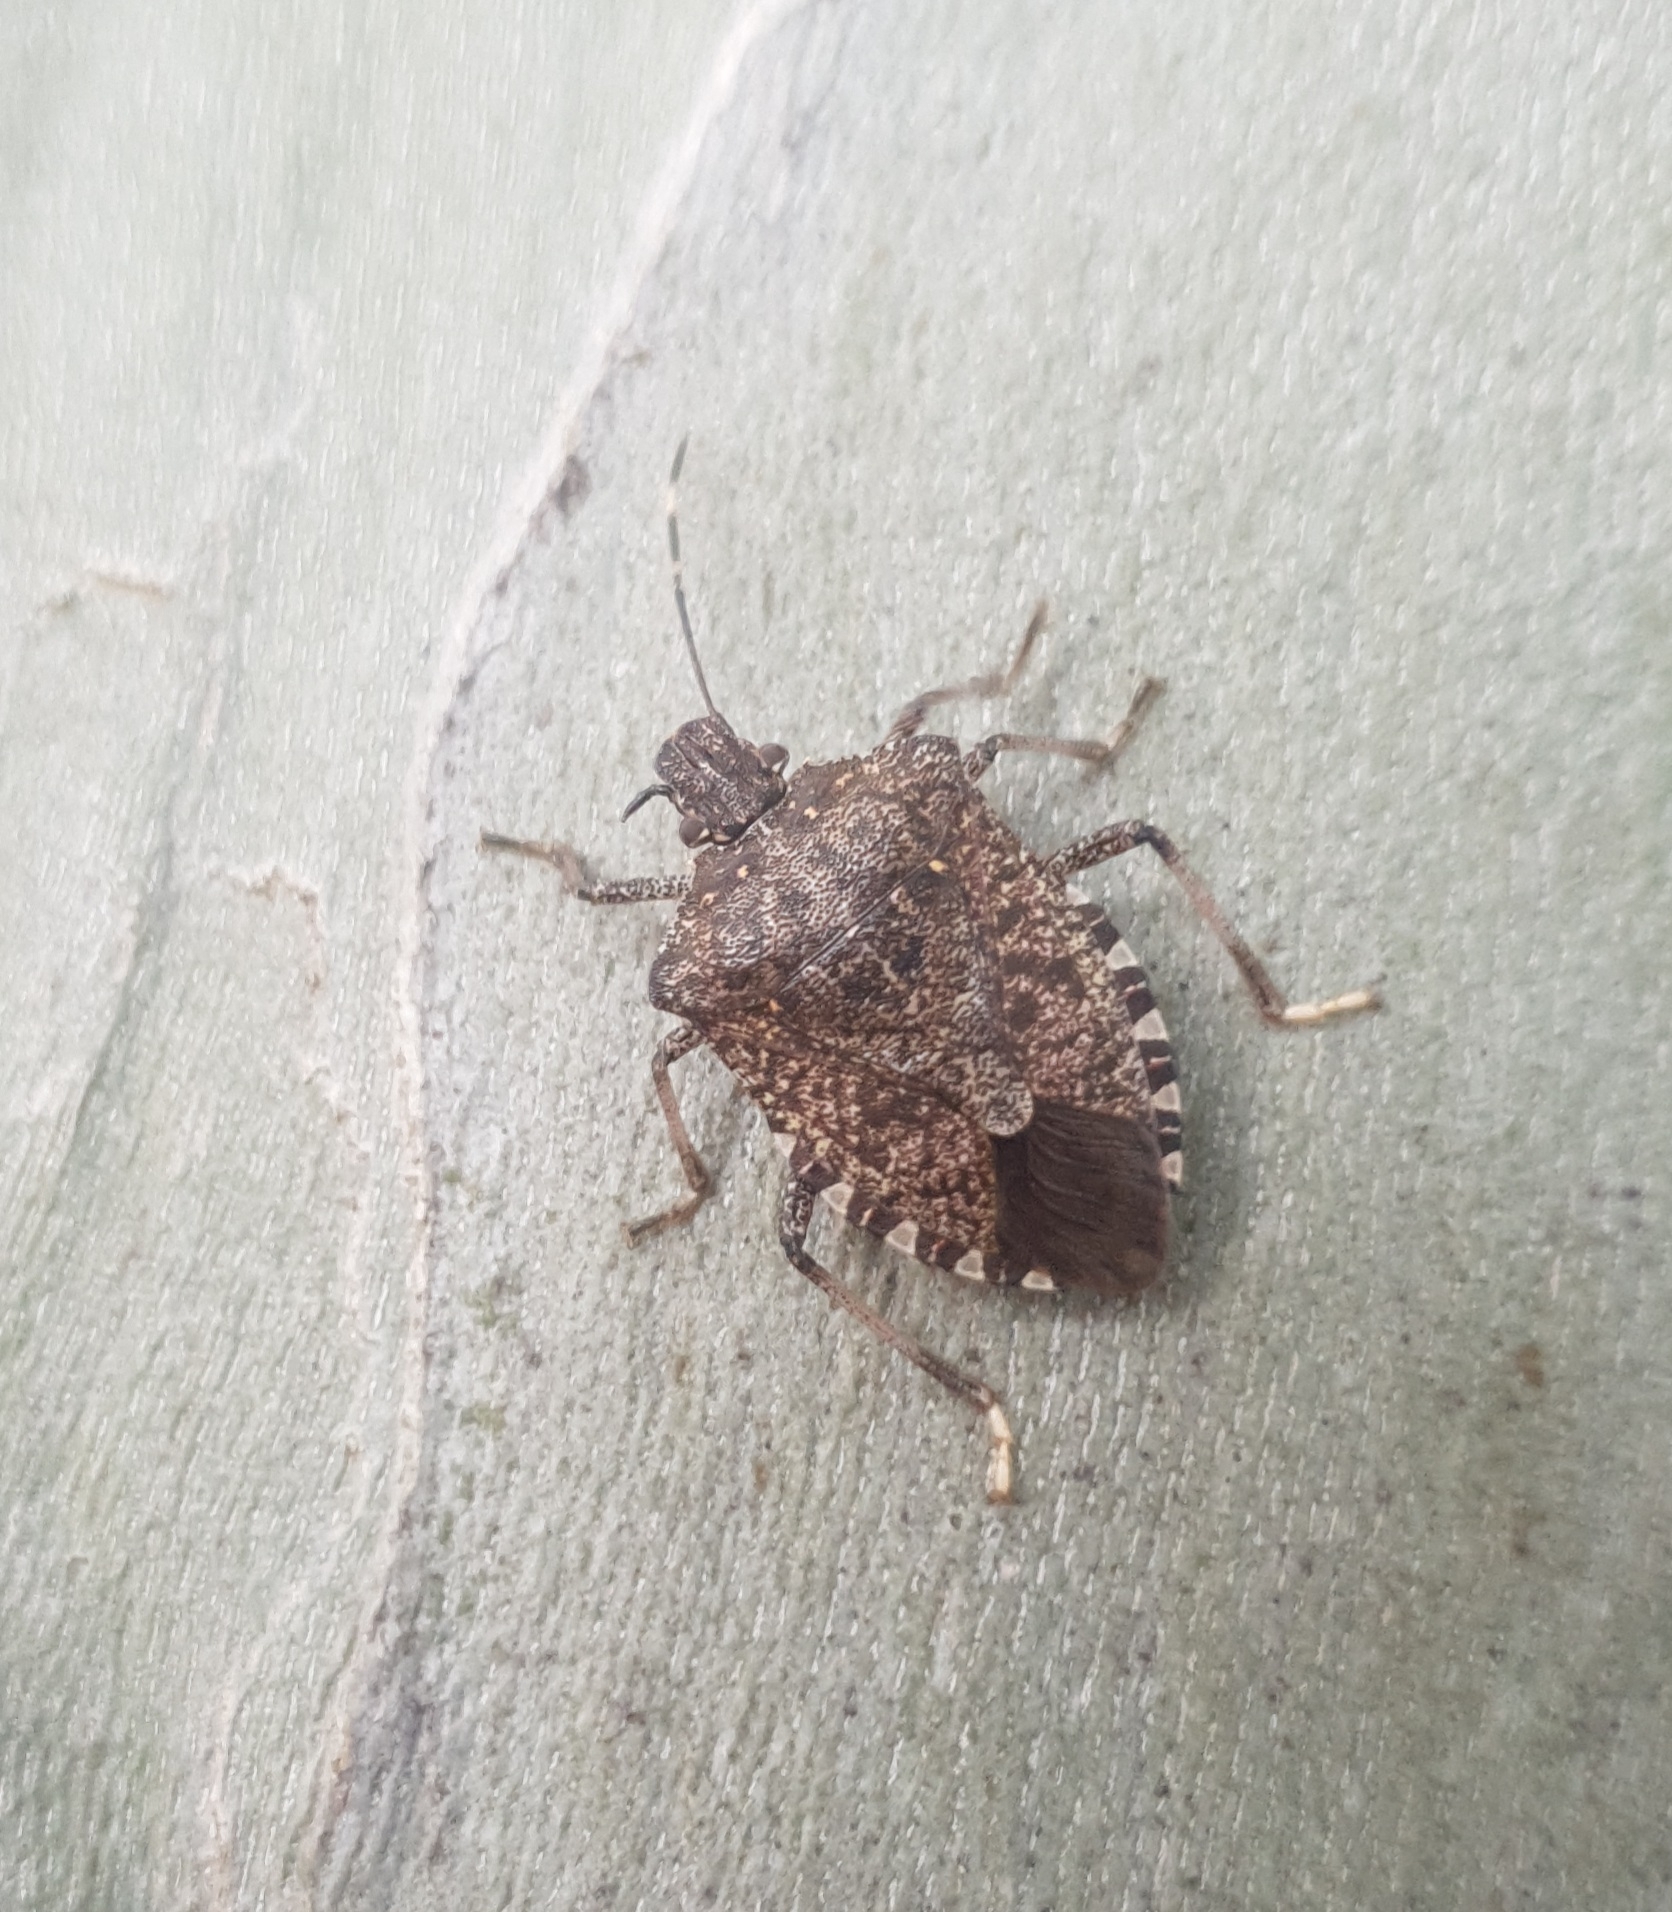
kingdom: Animalia
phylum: Arthropoda
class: Insecta
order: Hemiptera
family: Pentatomidae
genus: Halyomorpha
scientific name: Halyomorpha halys
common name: Brown marmorated stink bug
